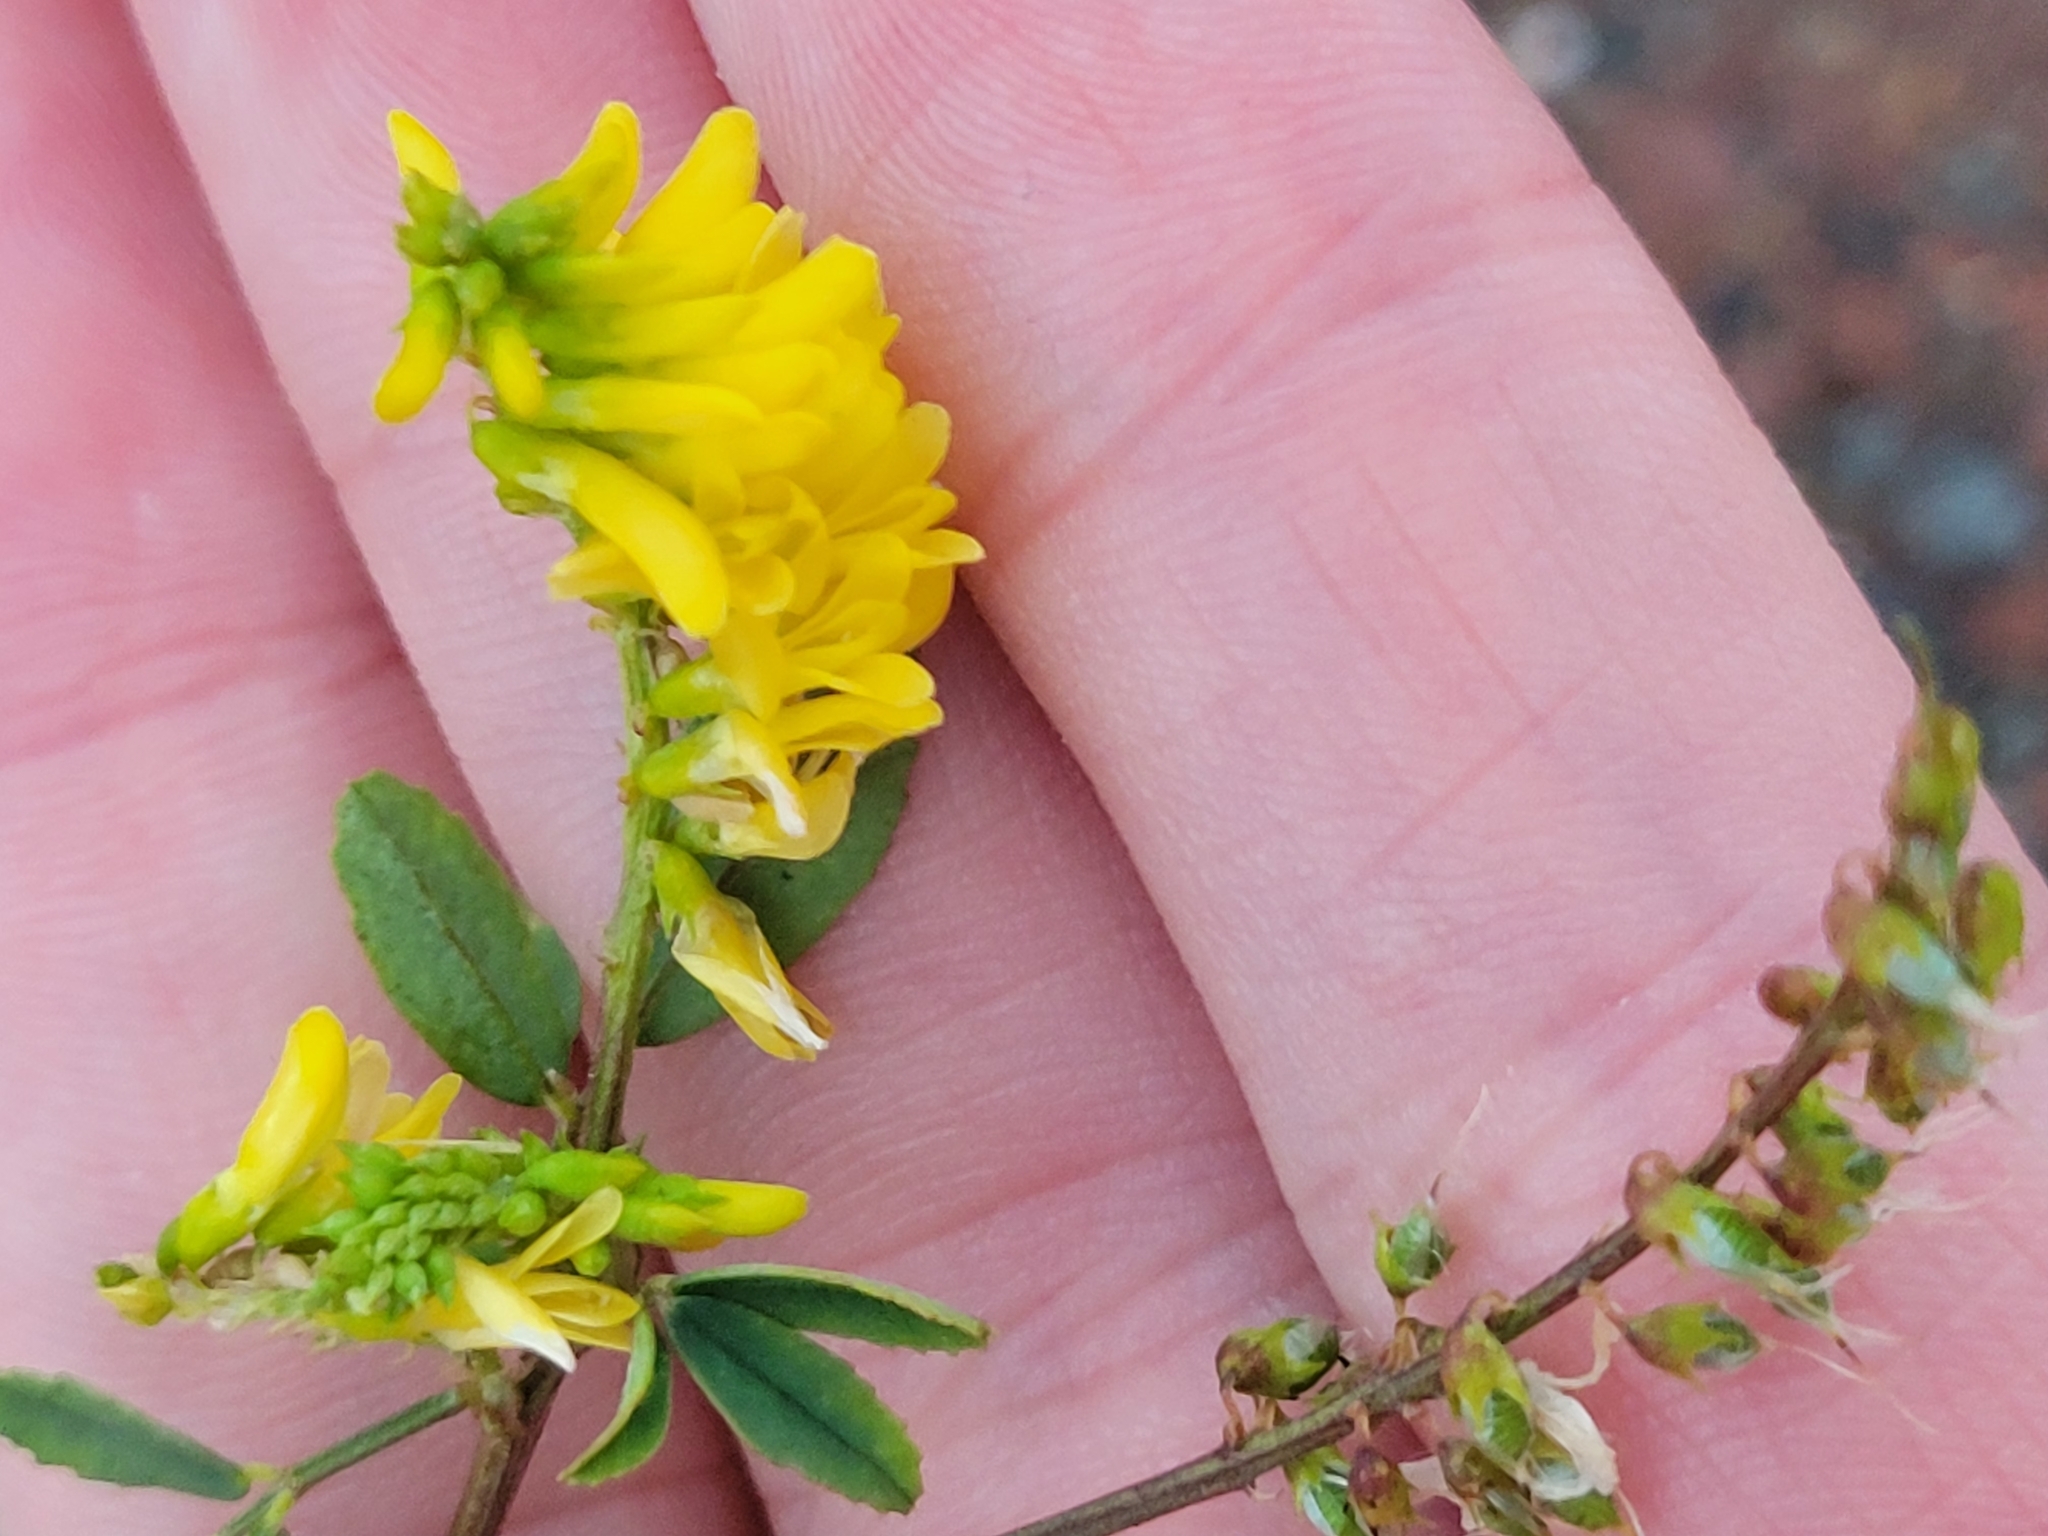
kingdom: Plantae
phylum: Tracheophyta
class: Magnoliopsida
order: Fabales
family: Fabaceae
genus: Melilotus
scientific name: Melilotus officinalis
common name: Sweetclover
